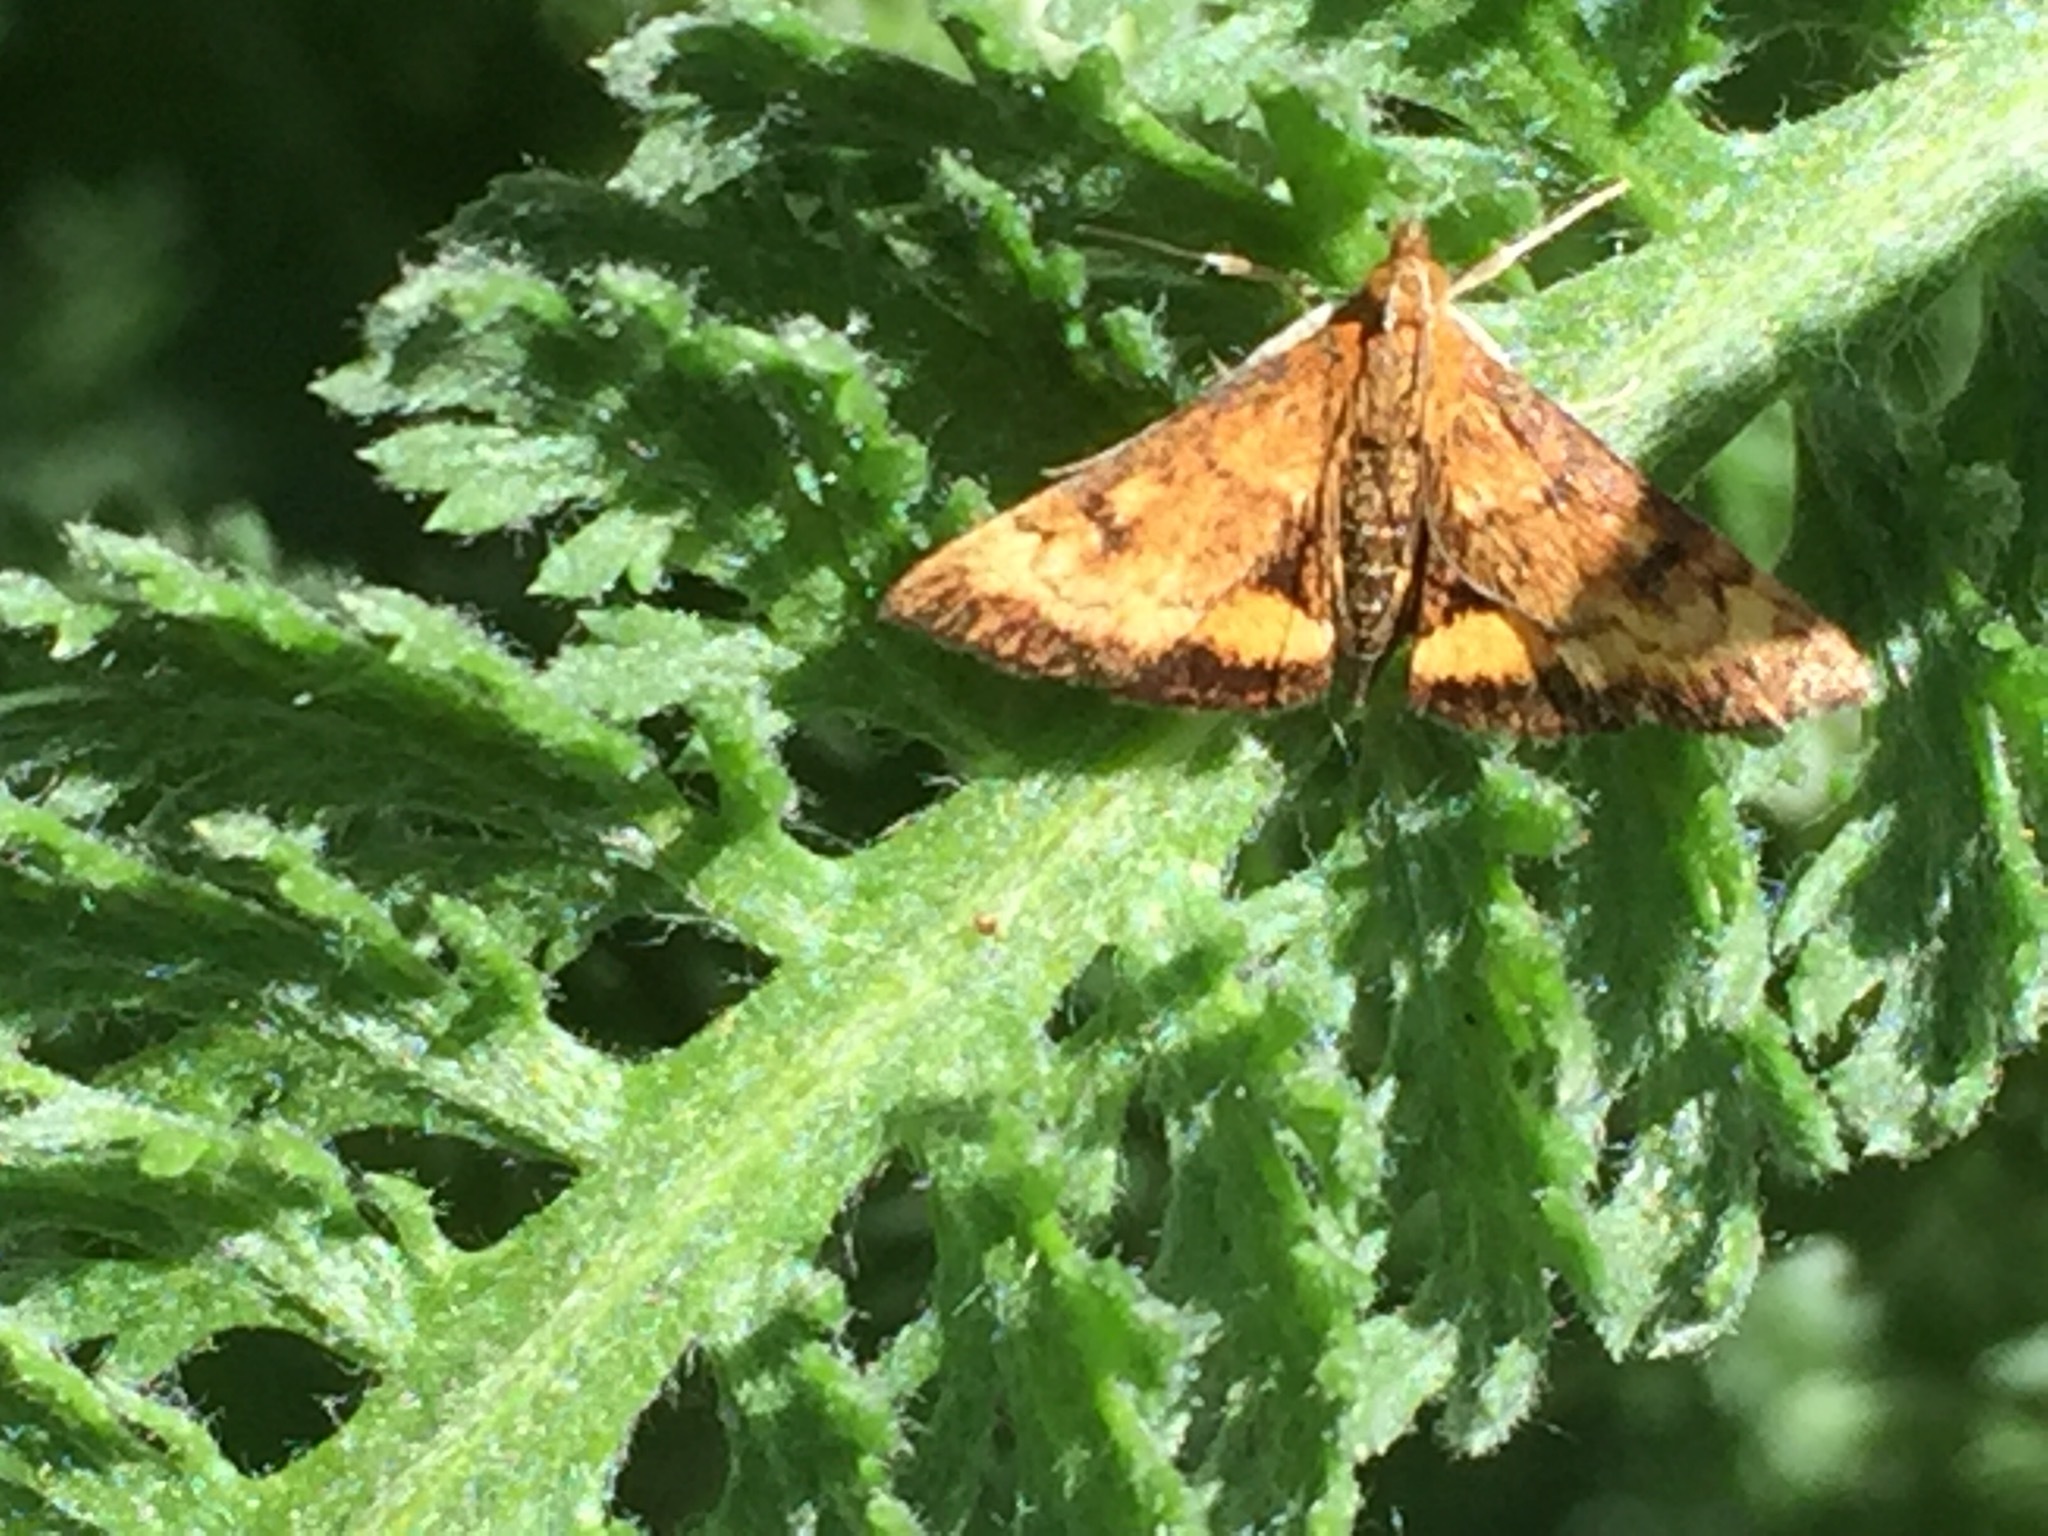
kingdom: Animalia
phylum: Arthropoda
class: Insecta
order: Lepidoptera
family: Crambidae
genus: Pyrausta
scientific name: Pyrausta californicalis
